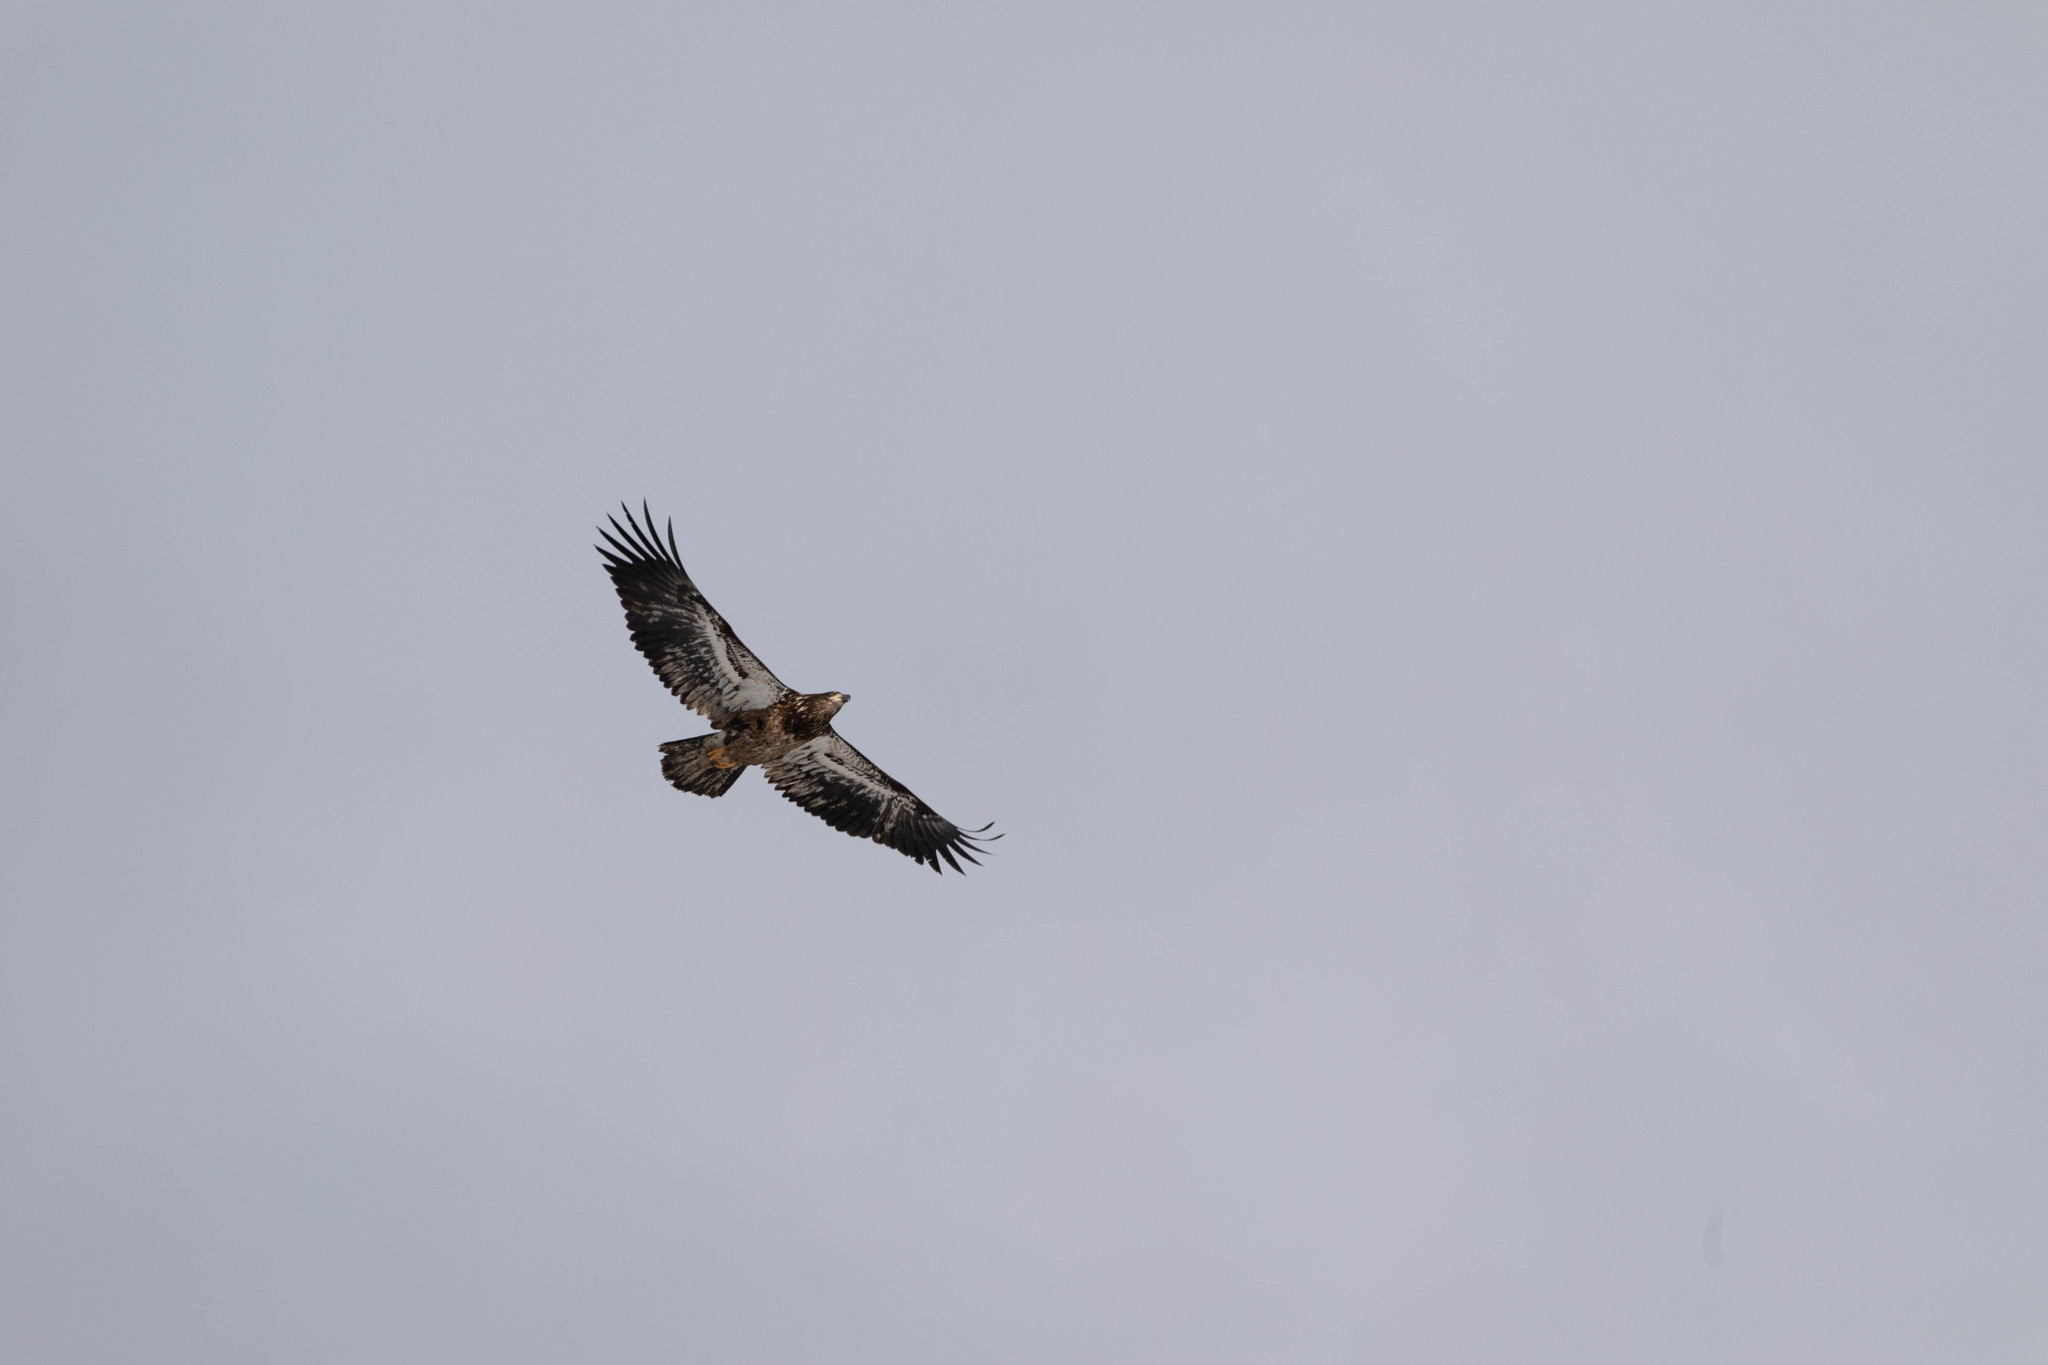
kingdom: Animalia
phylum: Chordata
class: Aves
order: Accipitriformes
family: Accipitridae
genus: Haliaeetus
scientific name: Haliaeetus leucocephalus
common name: Bald eagle
